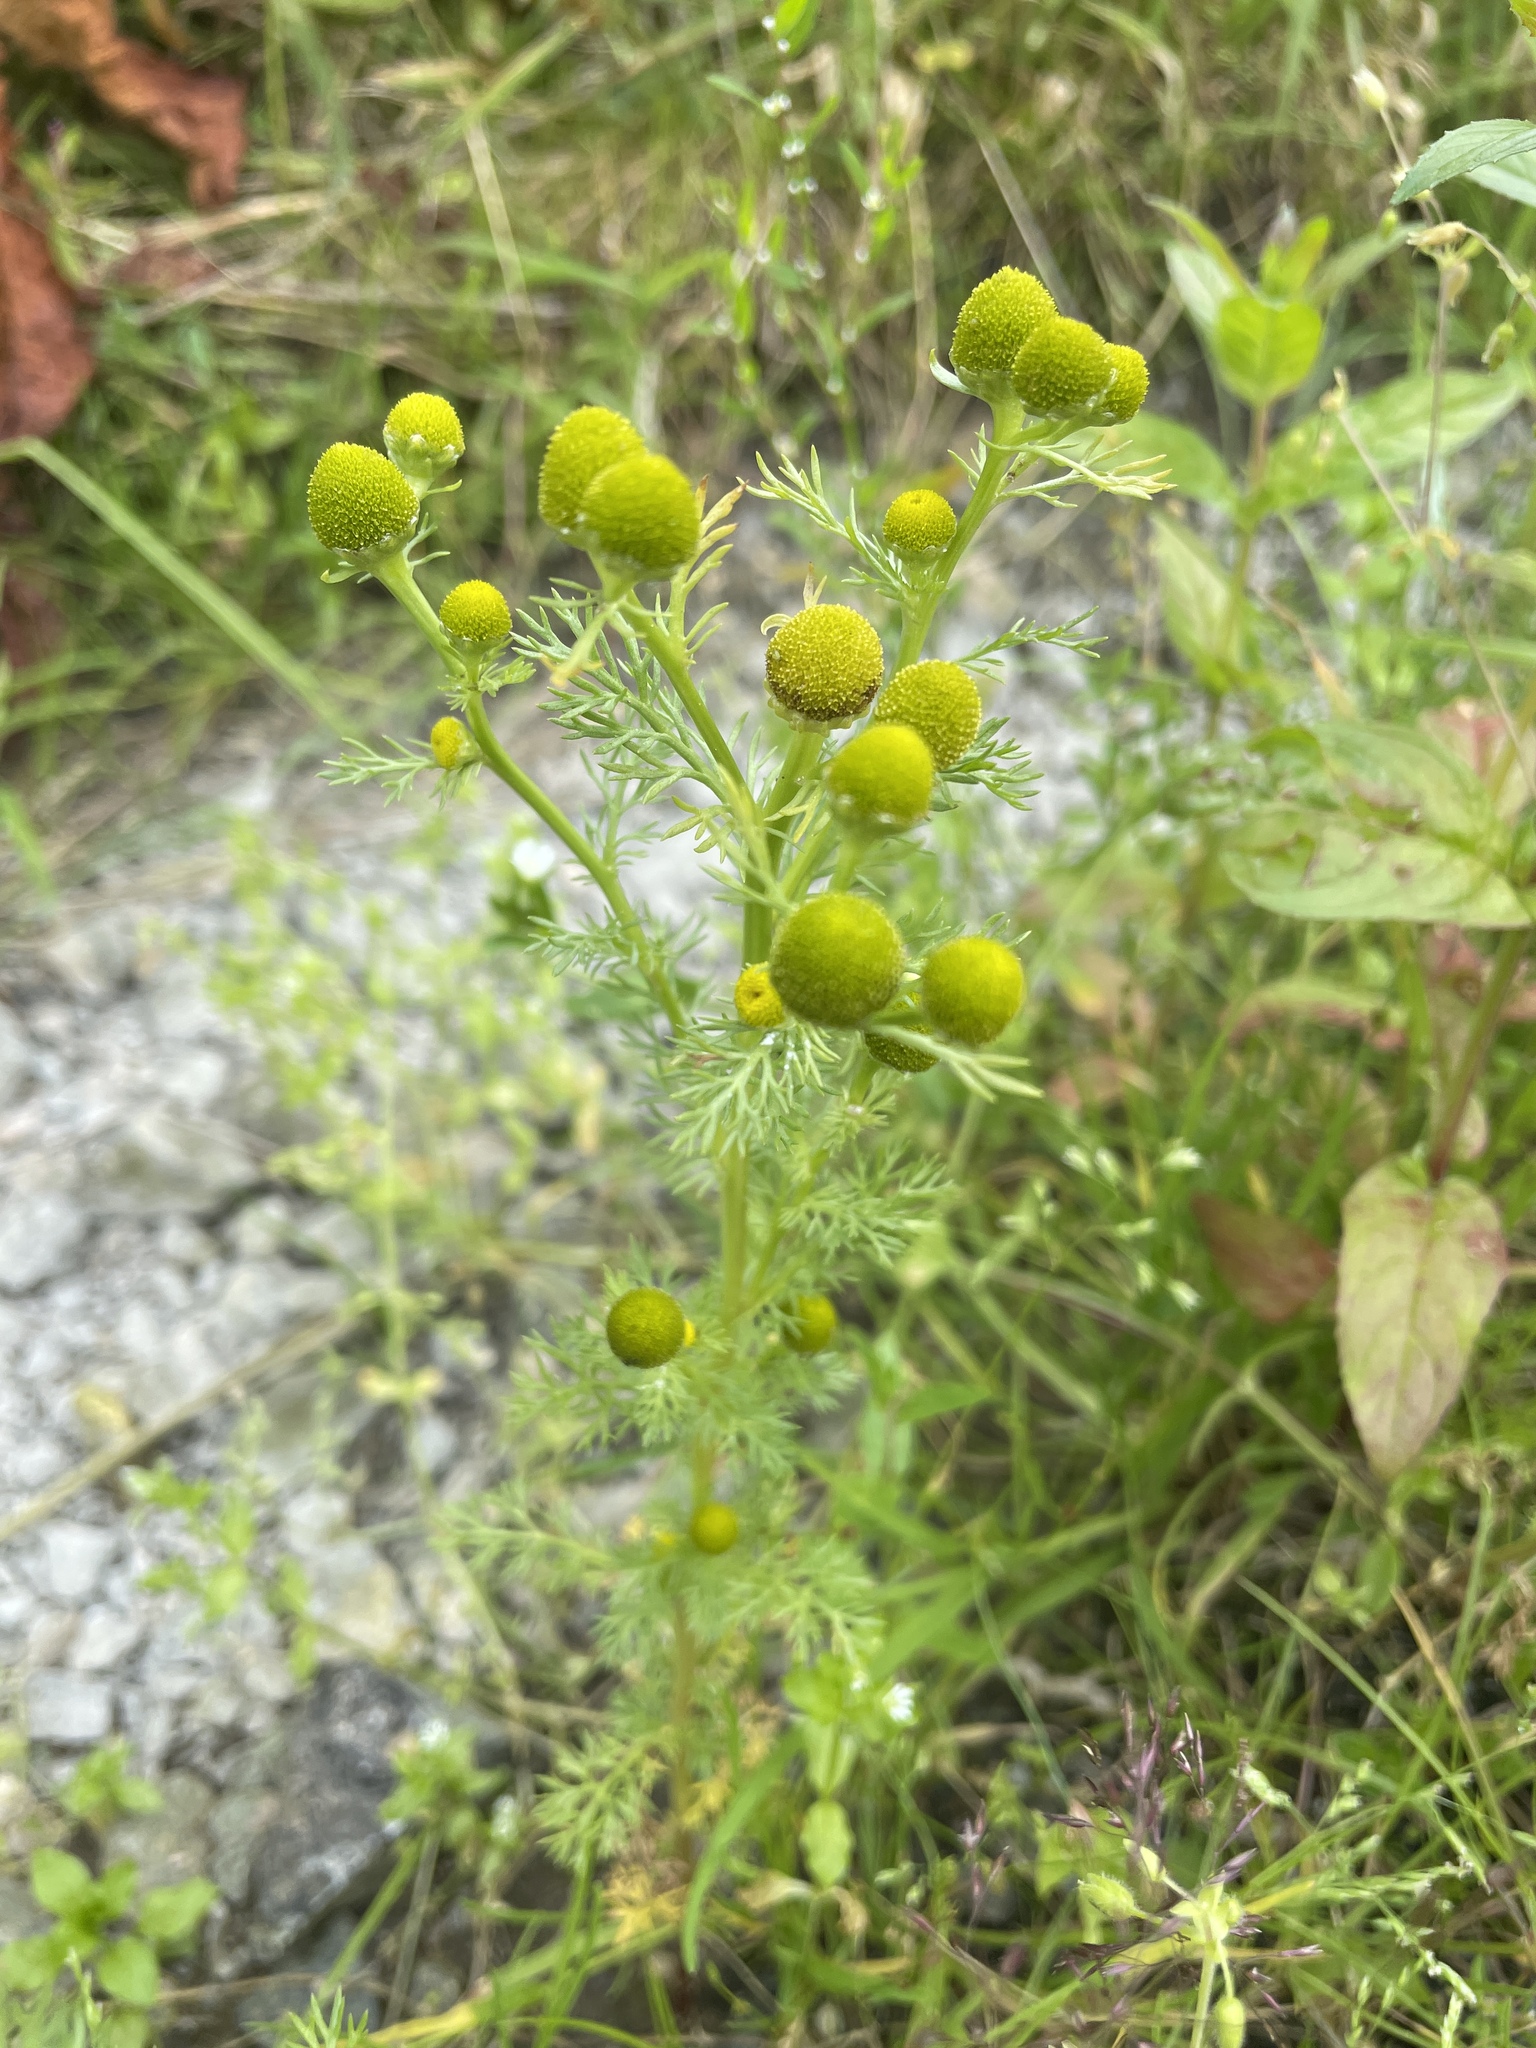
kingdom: Plantae
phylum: Tracheophyta
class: Magnoliopsida
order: Asterales
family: Asteraceae
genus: Matricaria
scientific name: Matricaria discoidea
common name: Disc mayweed
